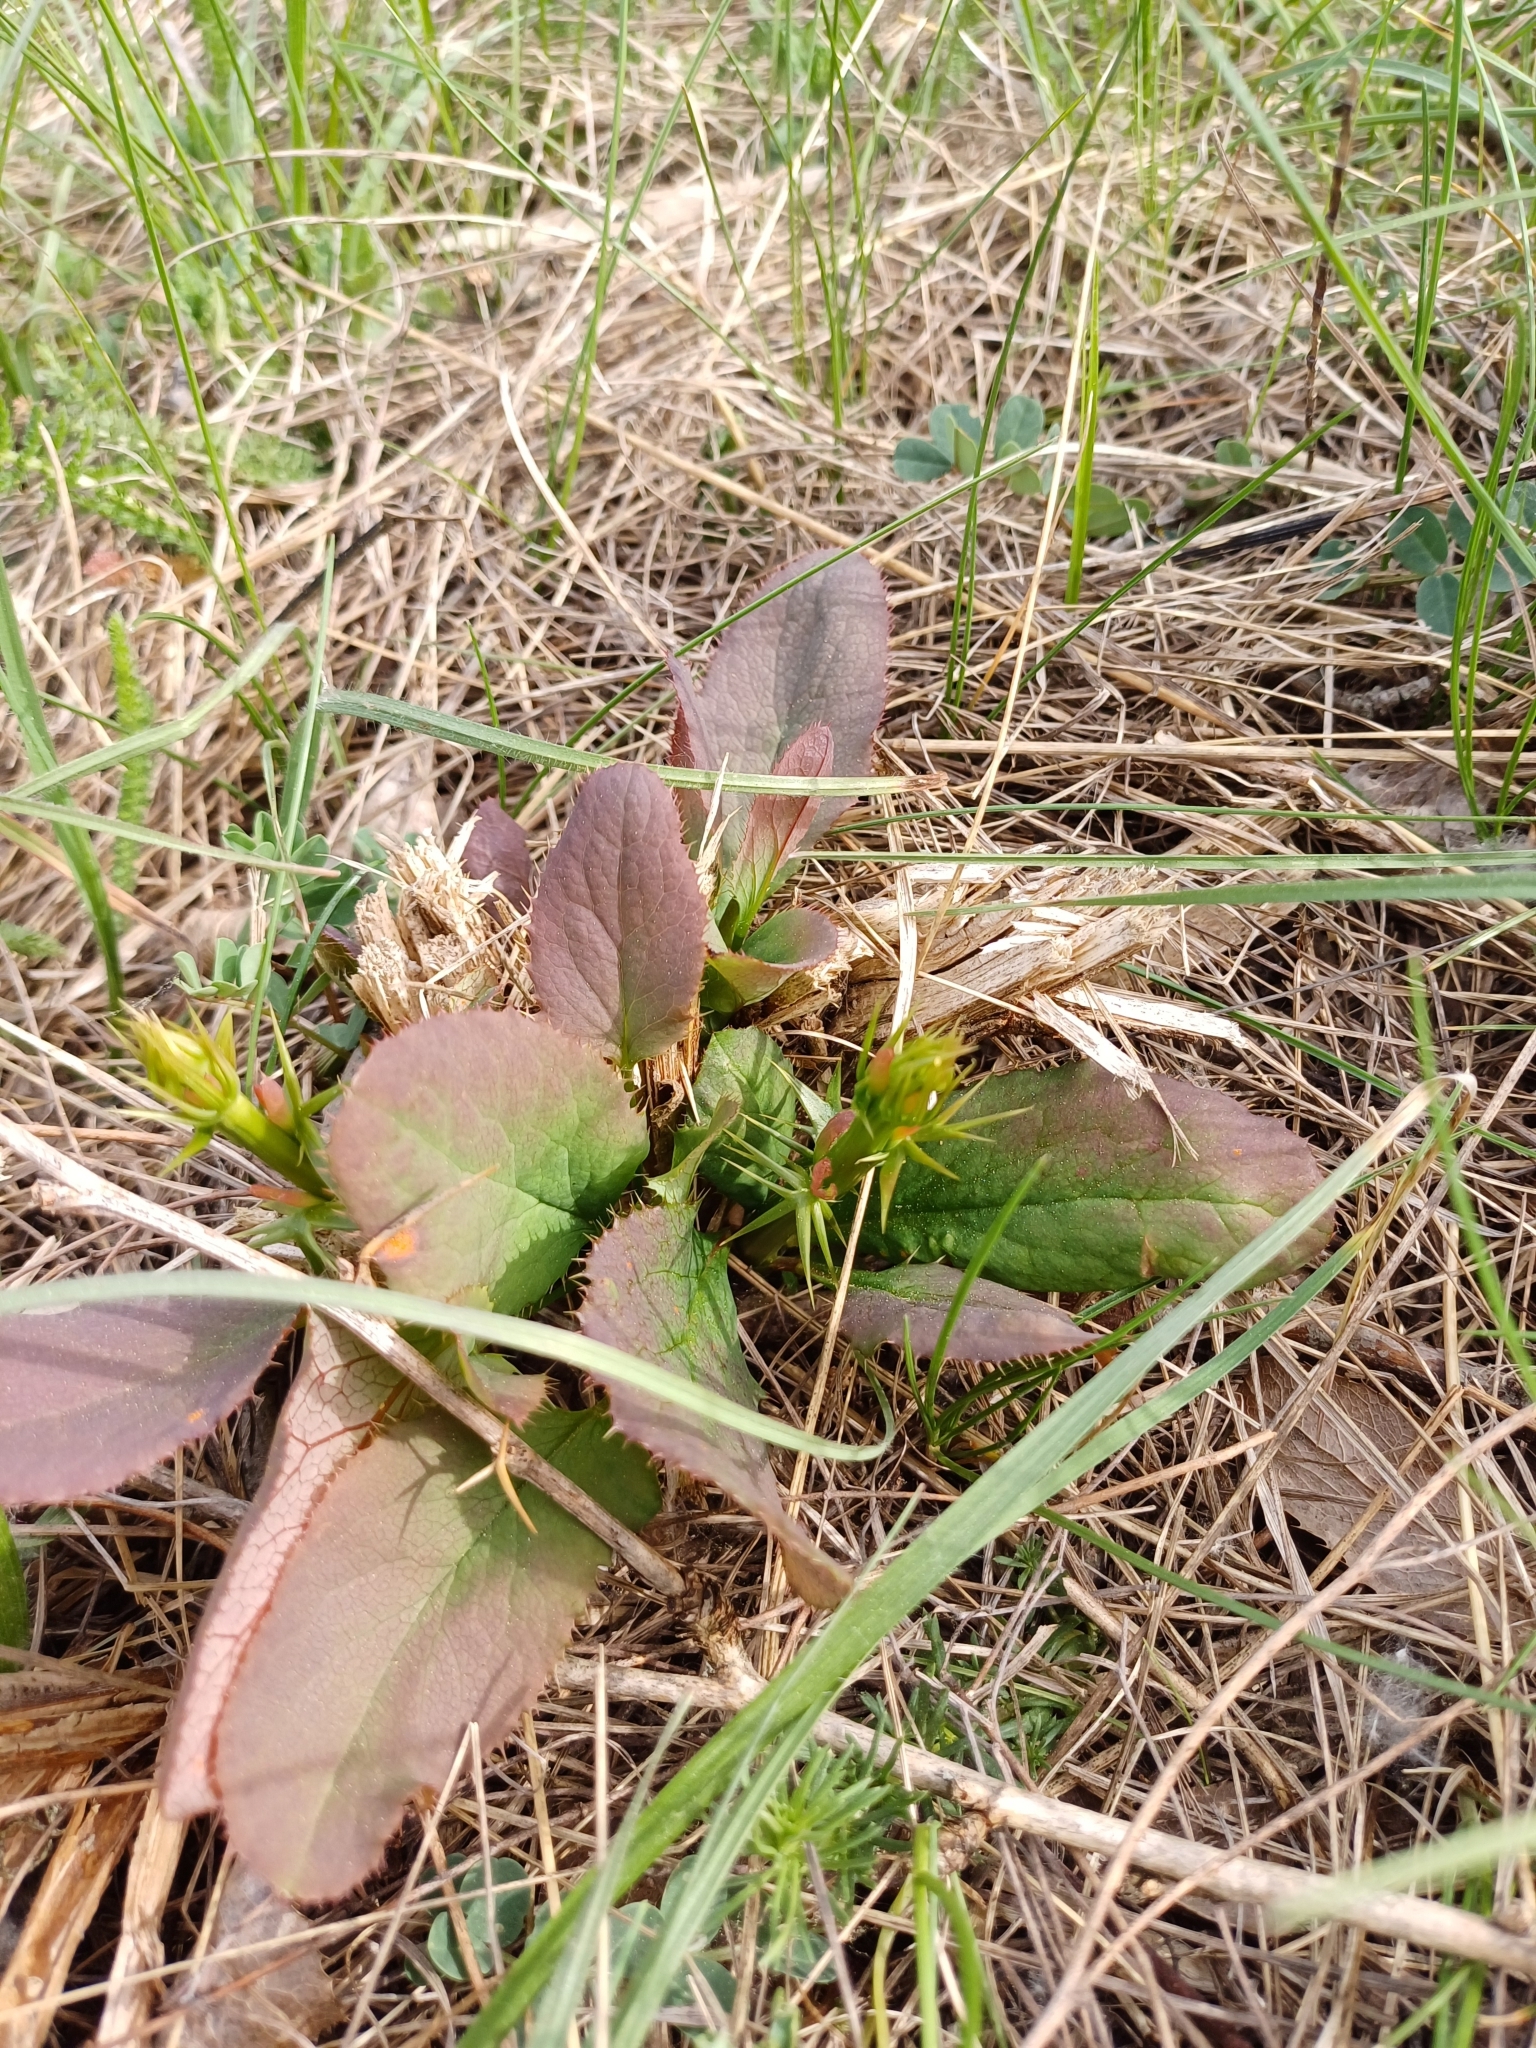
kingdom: Plantae
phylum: Tracheophyta
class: Magnoliopsida
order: Ranunculales
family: Berberidaceae
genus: Berberis
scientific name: Berberis vulgaris
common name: Barberry
